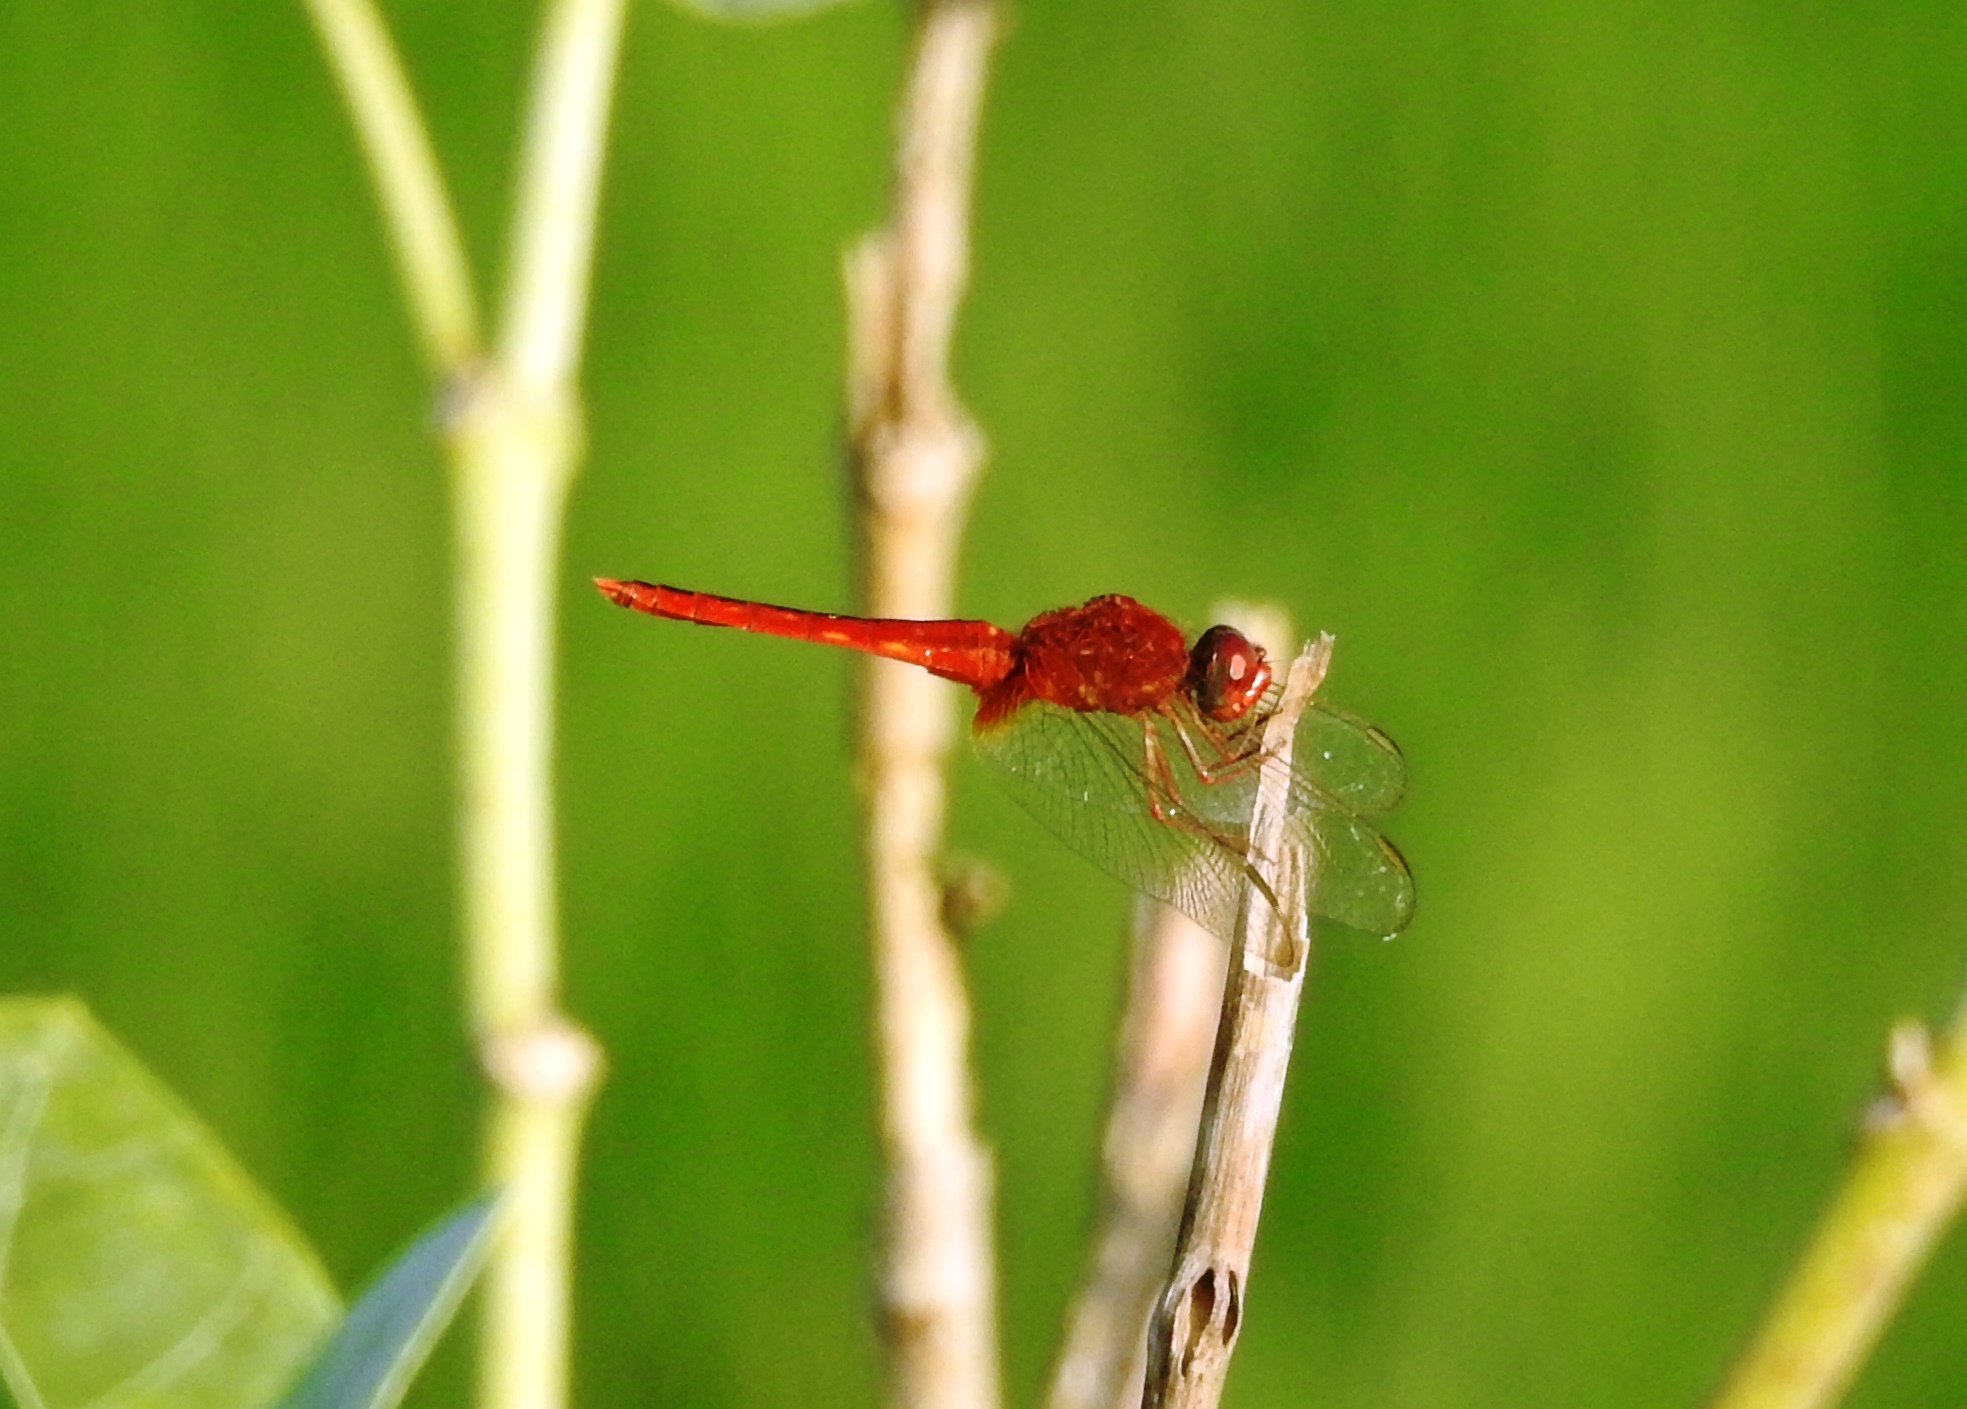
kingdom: Animalia
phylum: Arthropoda
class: Insecta
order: Odonata
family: Libellulidae
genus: Crocothemis
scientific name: Crocothemis servilia
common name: Scarlet skimmer
